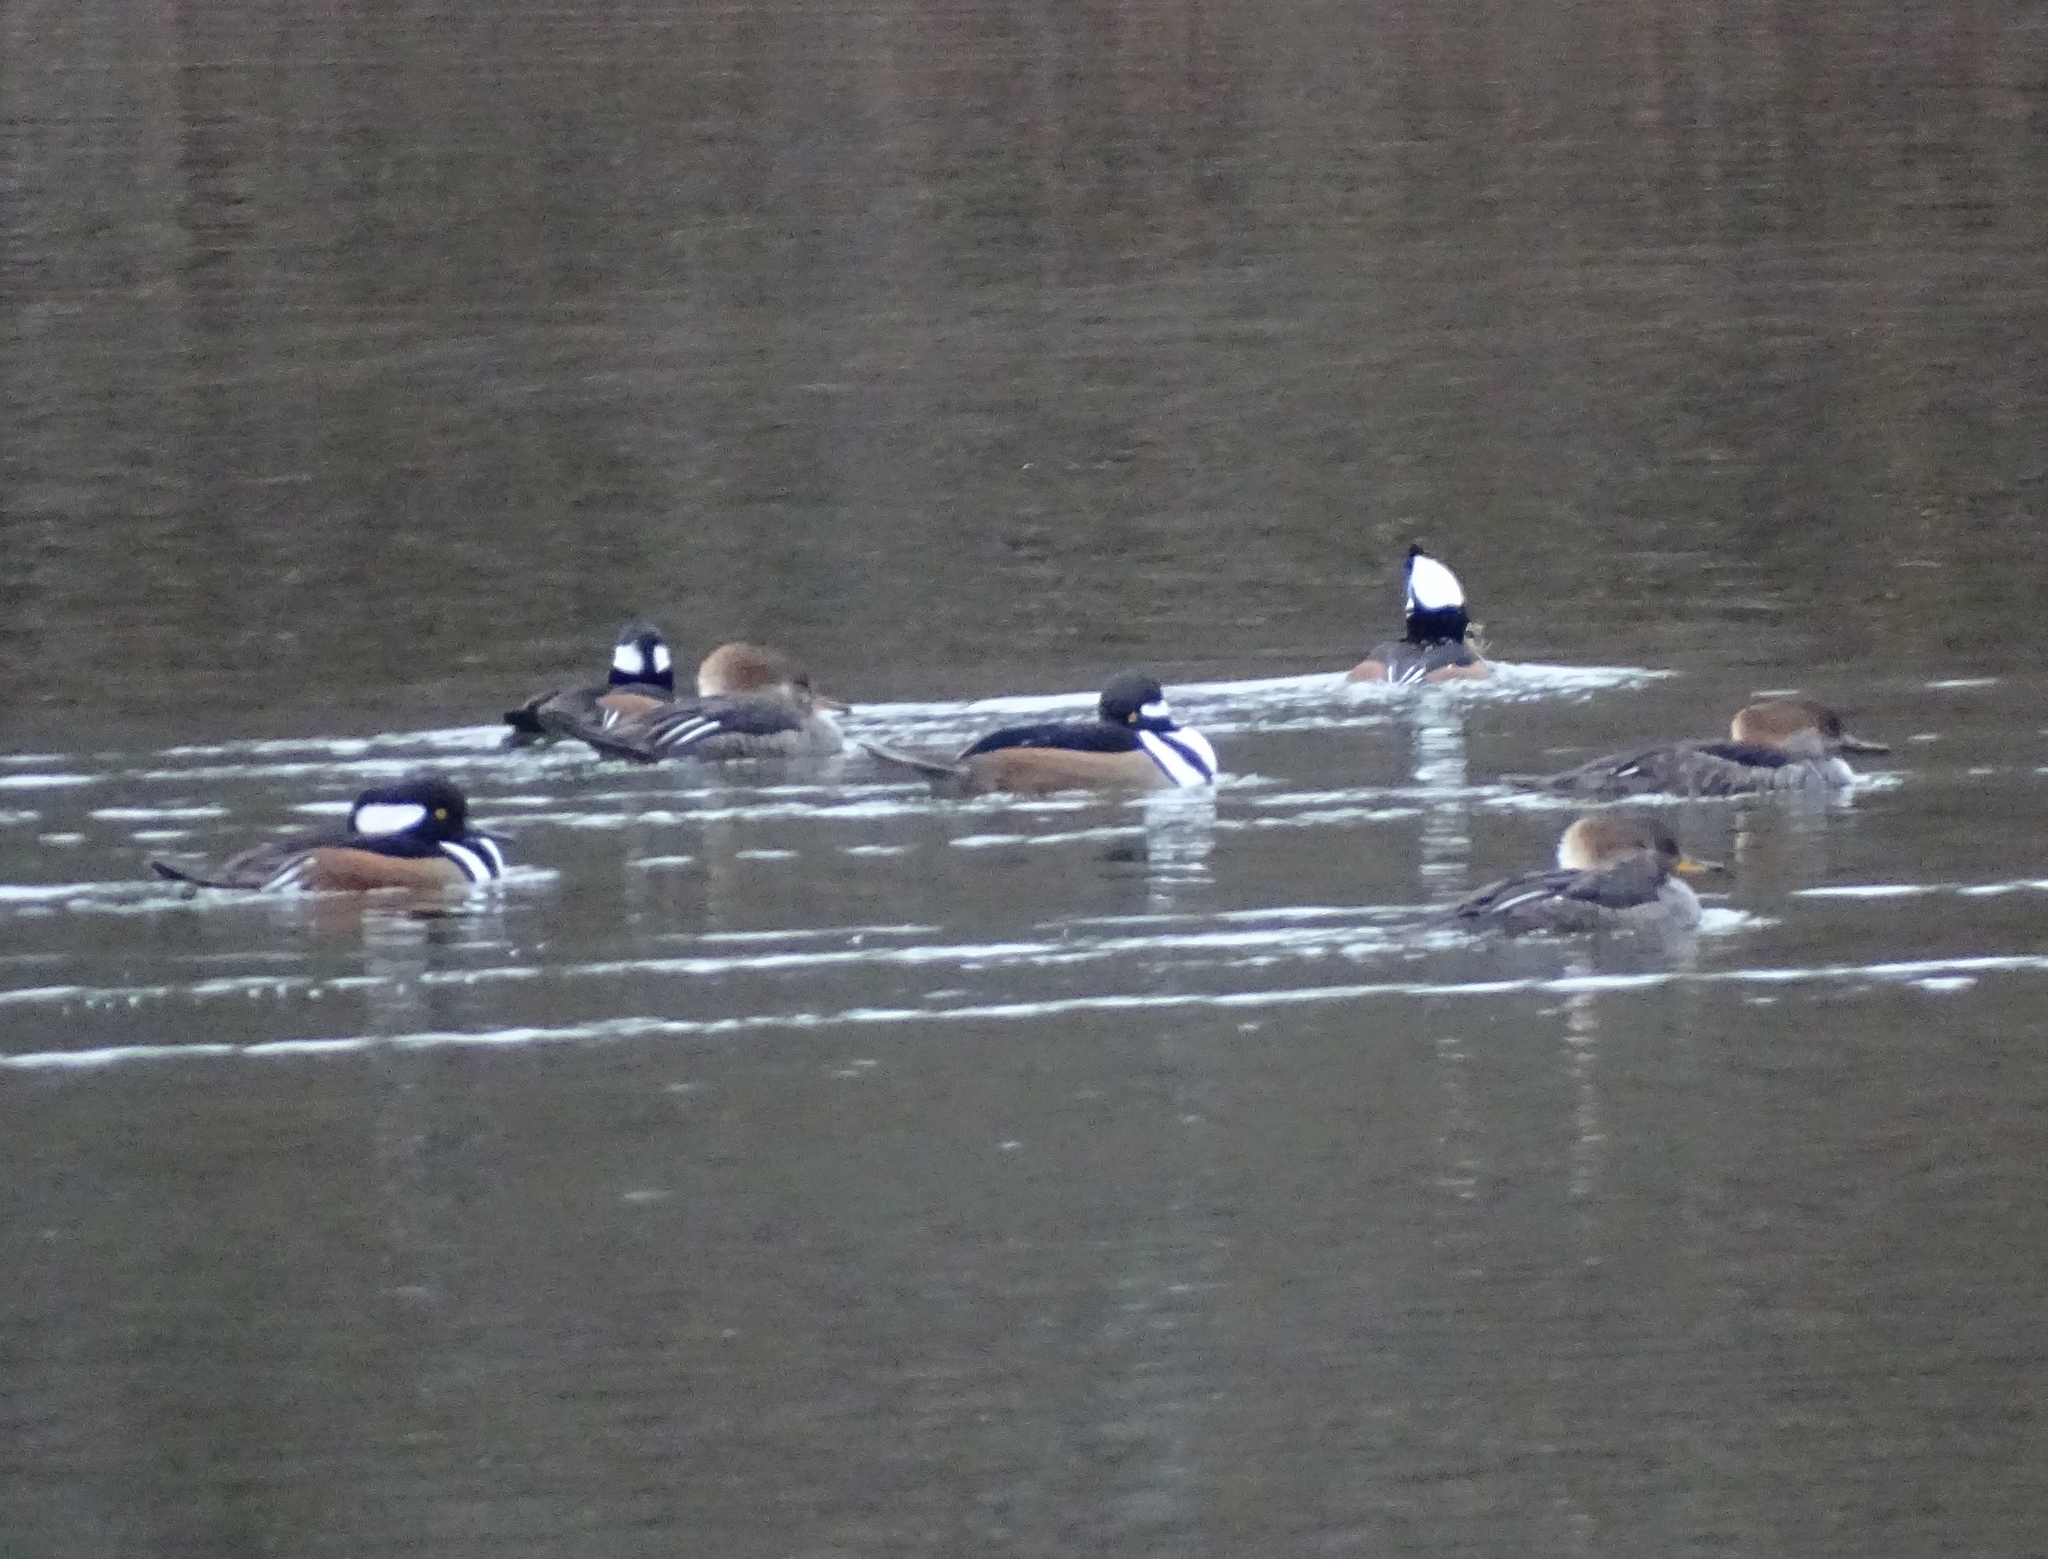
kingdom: Animalia
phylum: Chordata
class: Aves
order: Anseriformes
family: Anatidae
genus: Lophodytes
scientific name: Lophodytes cucullatus
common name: Hooded merganser
